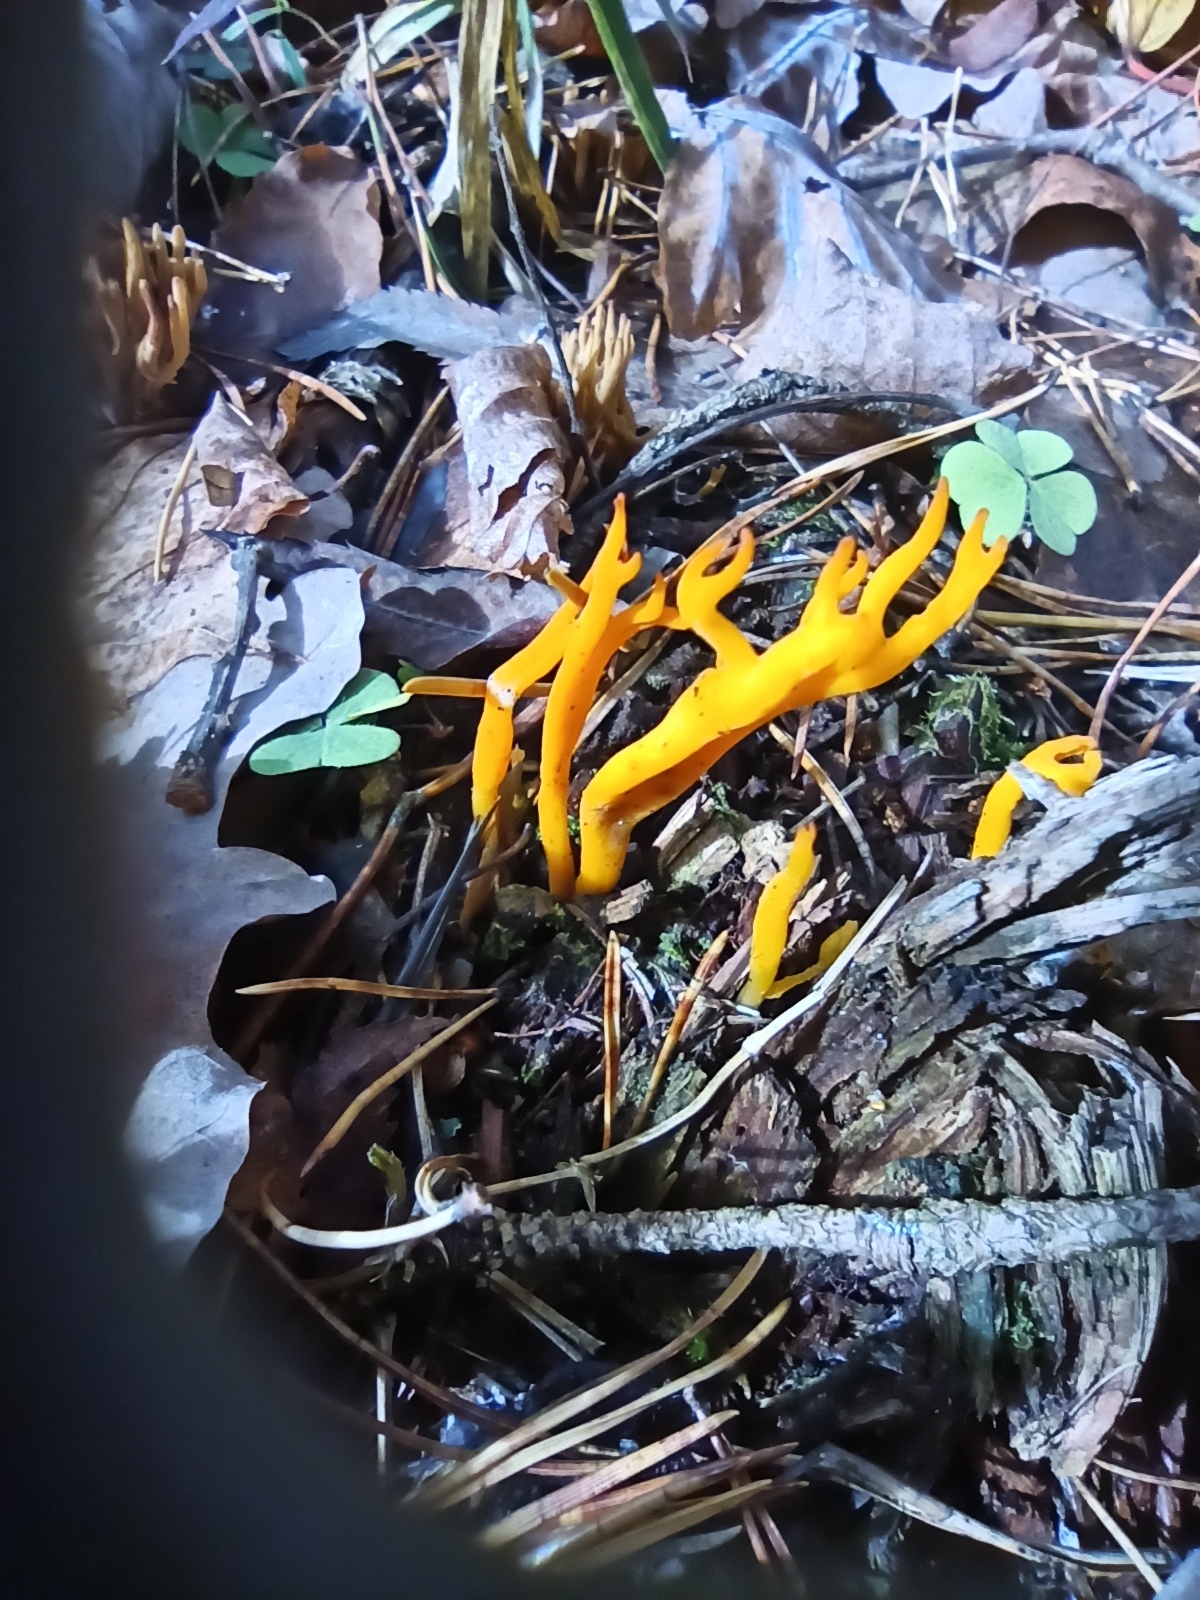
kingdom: Fungi
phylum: Basidiomycota
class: Dacrymycetes
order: Dacrymycetales
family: Dacrymycetaceae
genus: Calocera
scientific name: Calocera viscosa
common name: Yellow stagshorn
